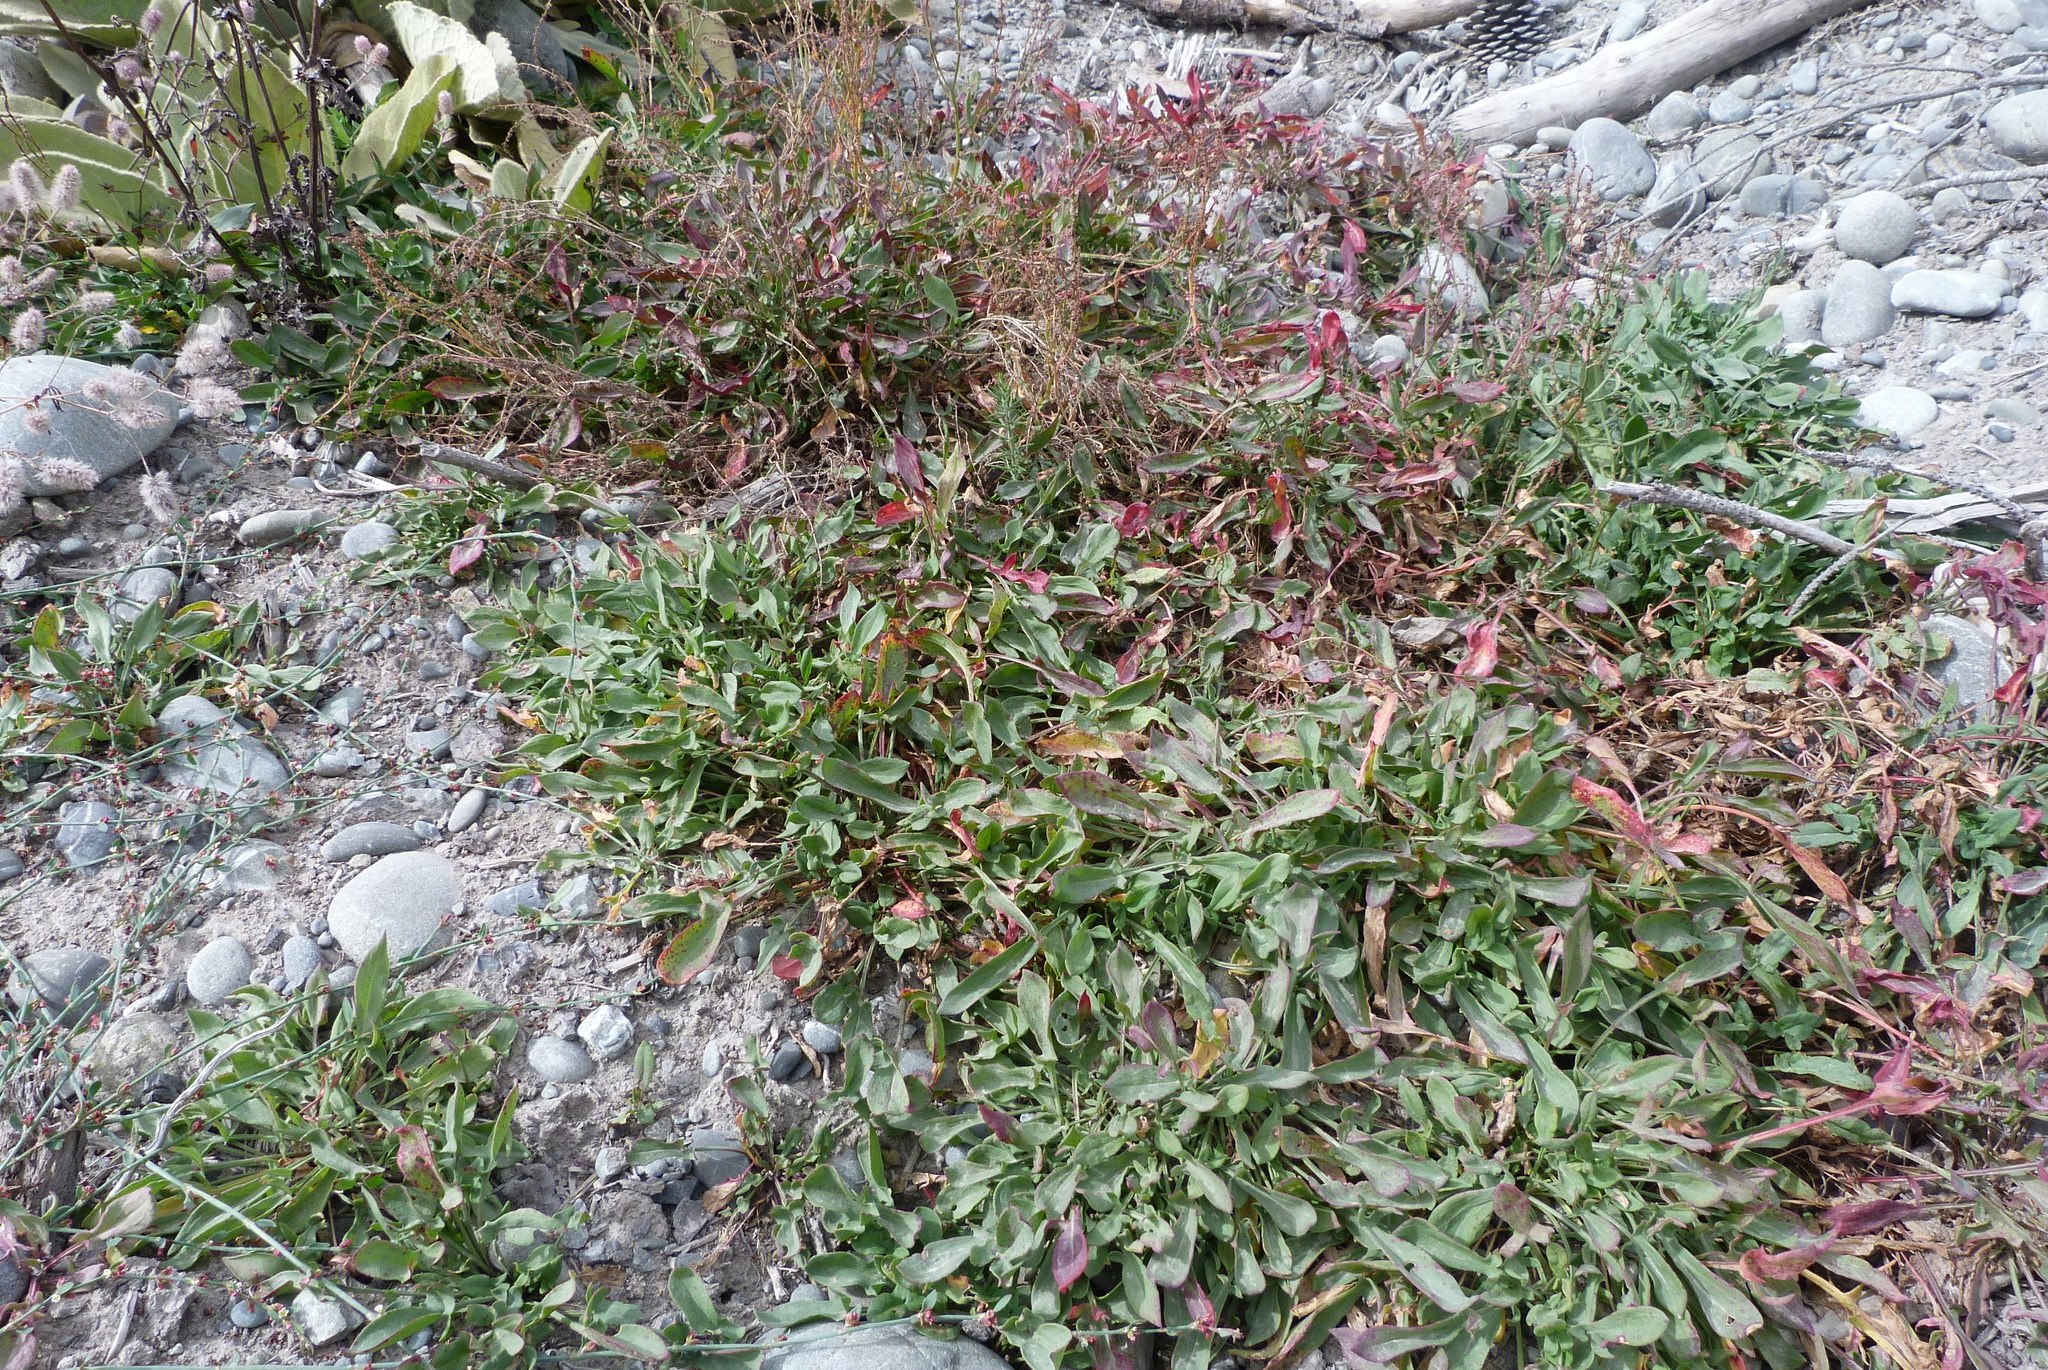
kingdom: Plantae
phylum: Tracheophyta
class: Magnoliopsida
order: Caryophyllales
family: Polygonaceae
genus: Rumex
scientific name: Rumex acetosella
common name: Common sheep sorrel
